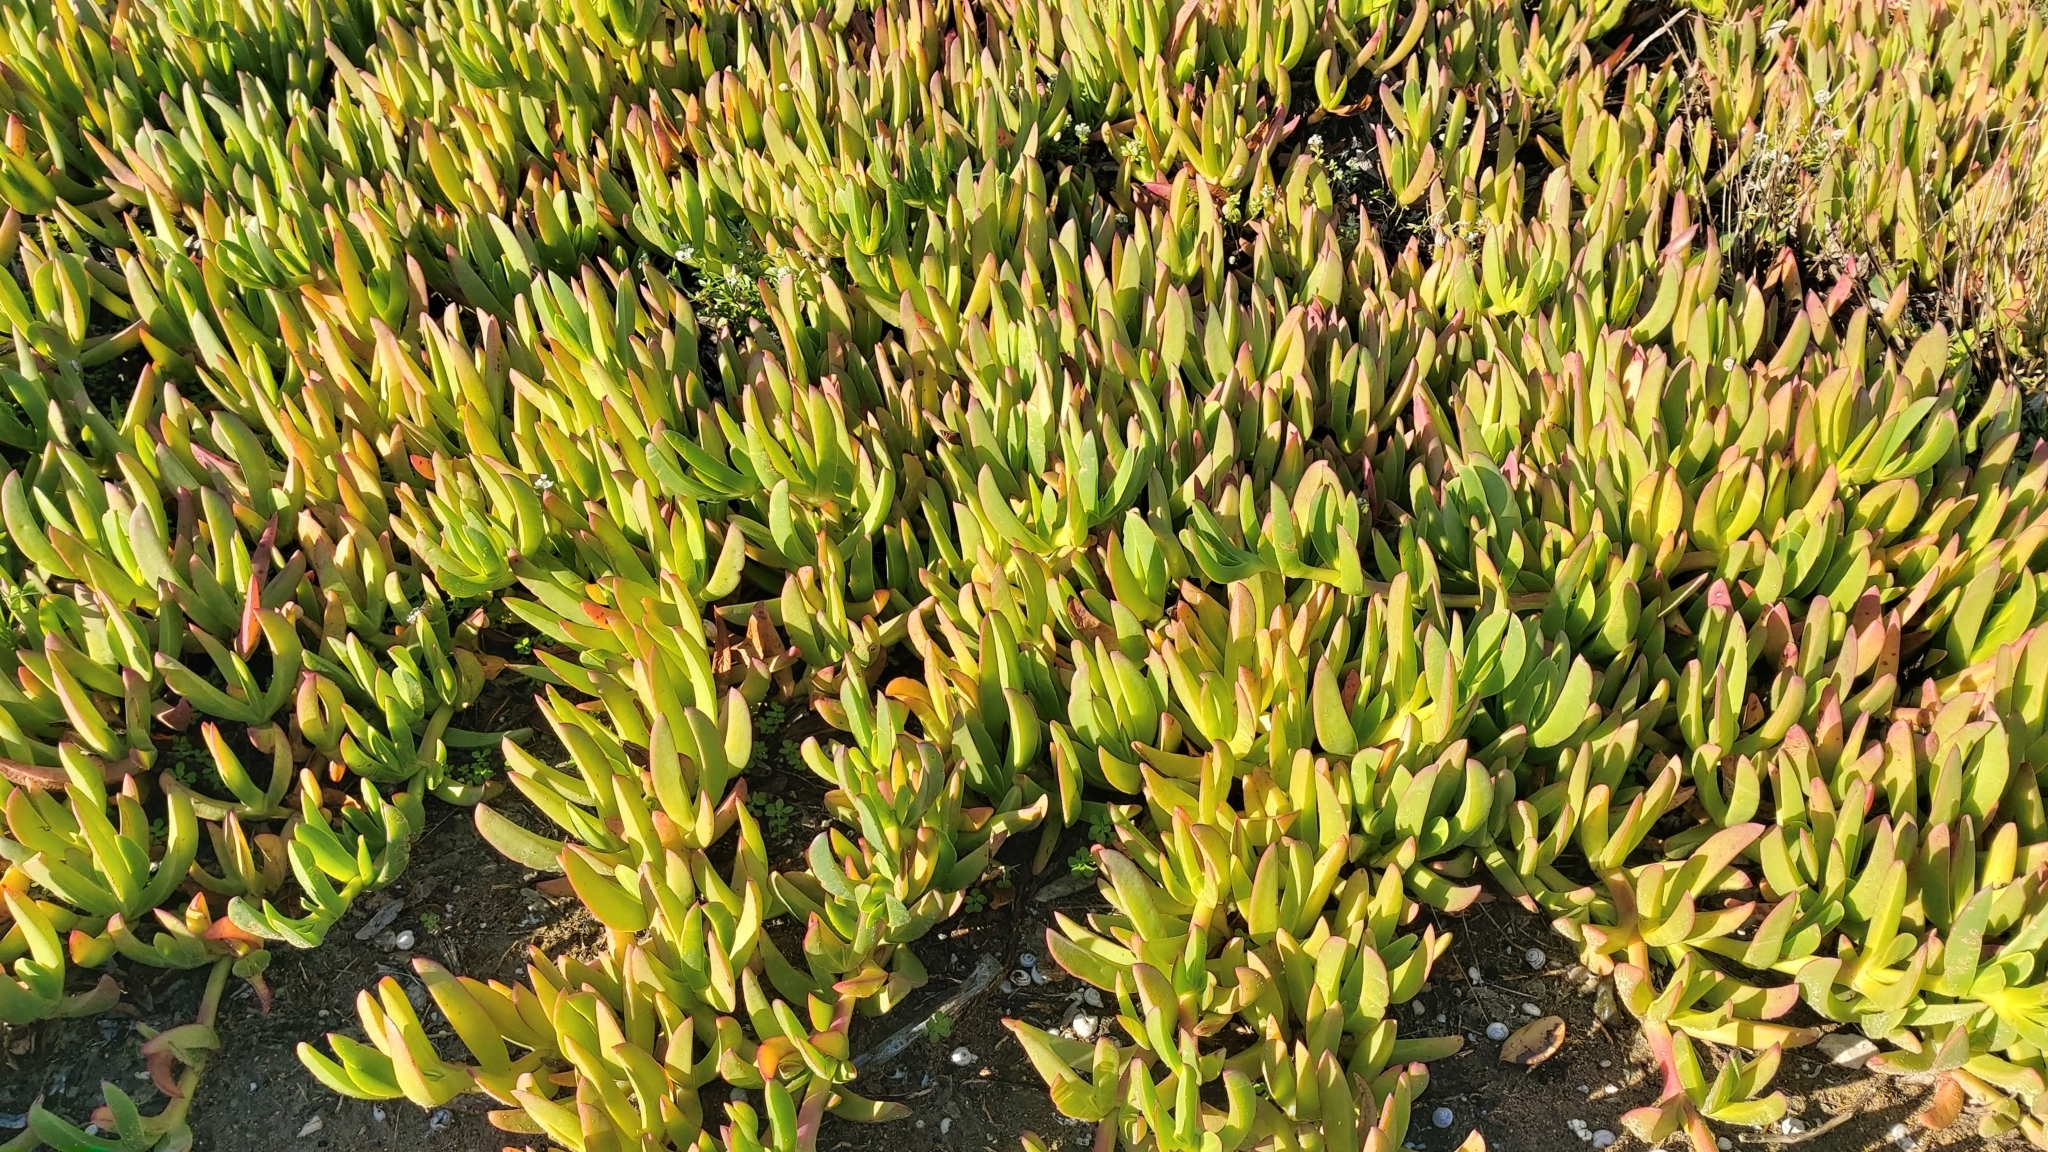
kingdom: Plantae
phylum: Tracheophyta
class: Magnoliopsida
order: Caryophyllales
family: Aizoaceae
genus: Carpobrotus
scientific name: Carpobrotus acinaciformis
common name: Sally-my-handsome
